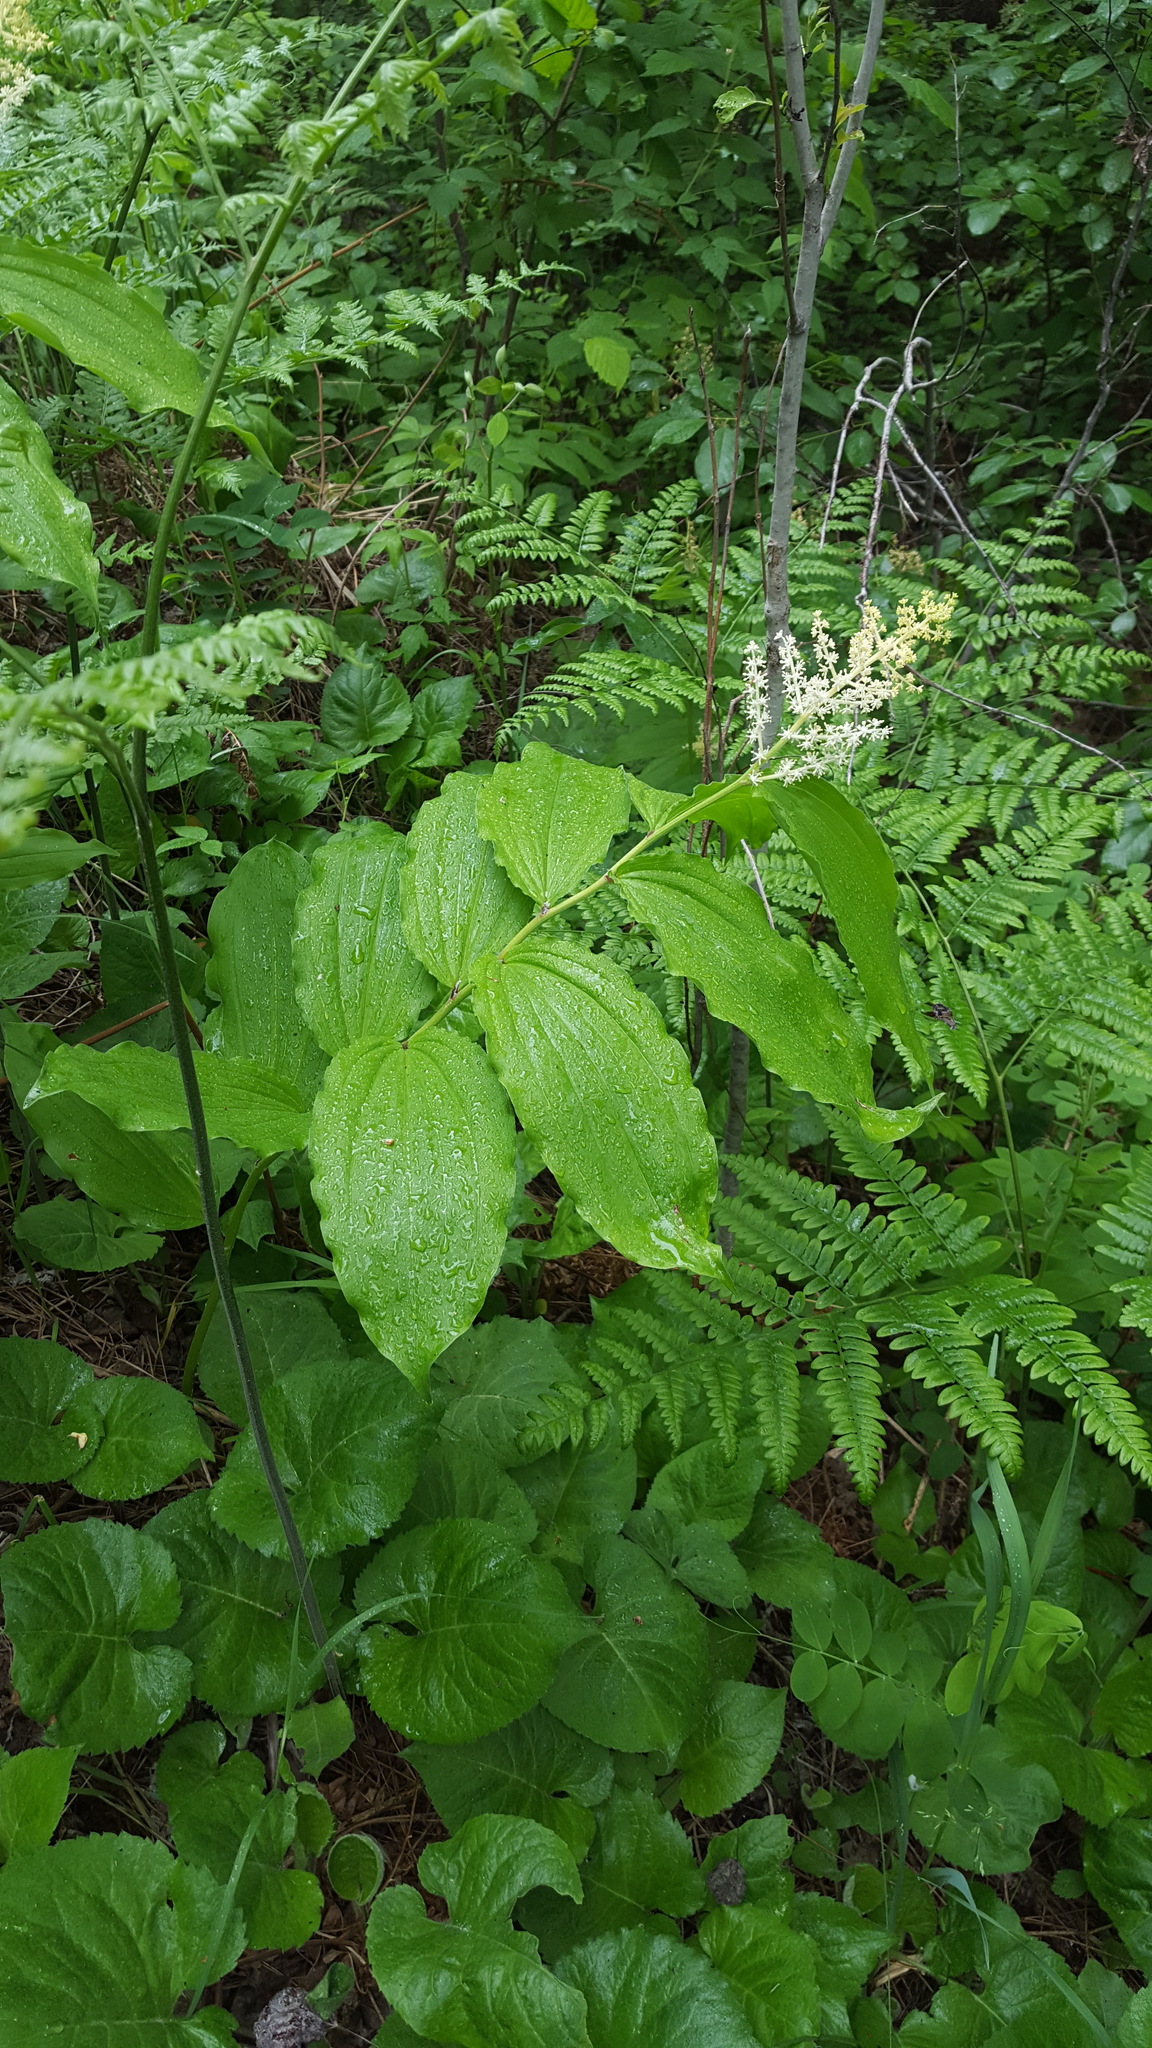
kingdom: Plantae
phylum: Tracheophyta
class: Liliopsida
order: Asparagales
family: Asparagaceae
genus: Maianthemum
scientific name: Maianthemum racemosum
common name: False spikenard
